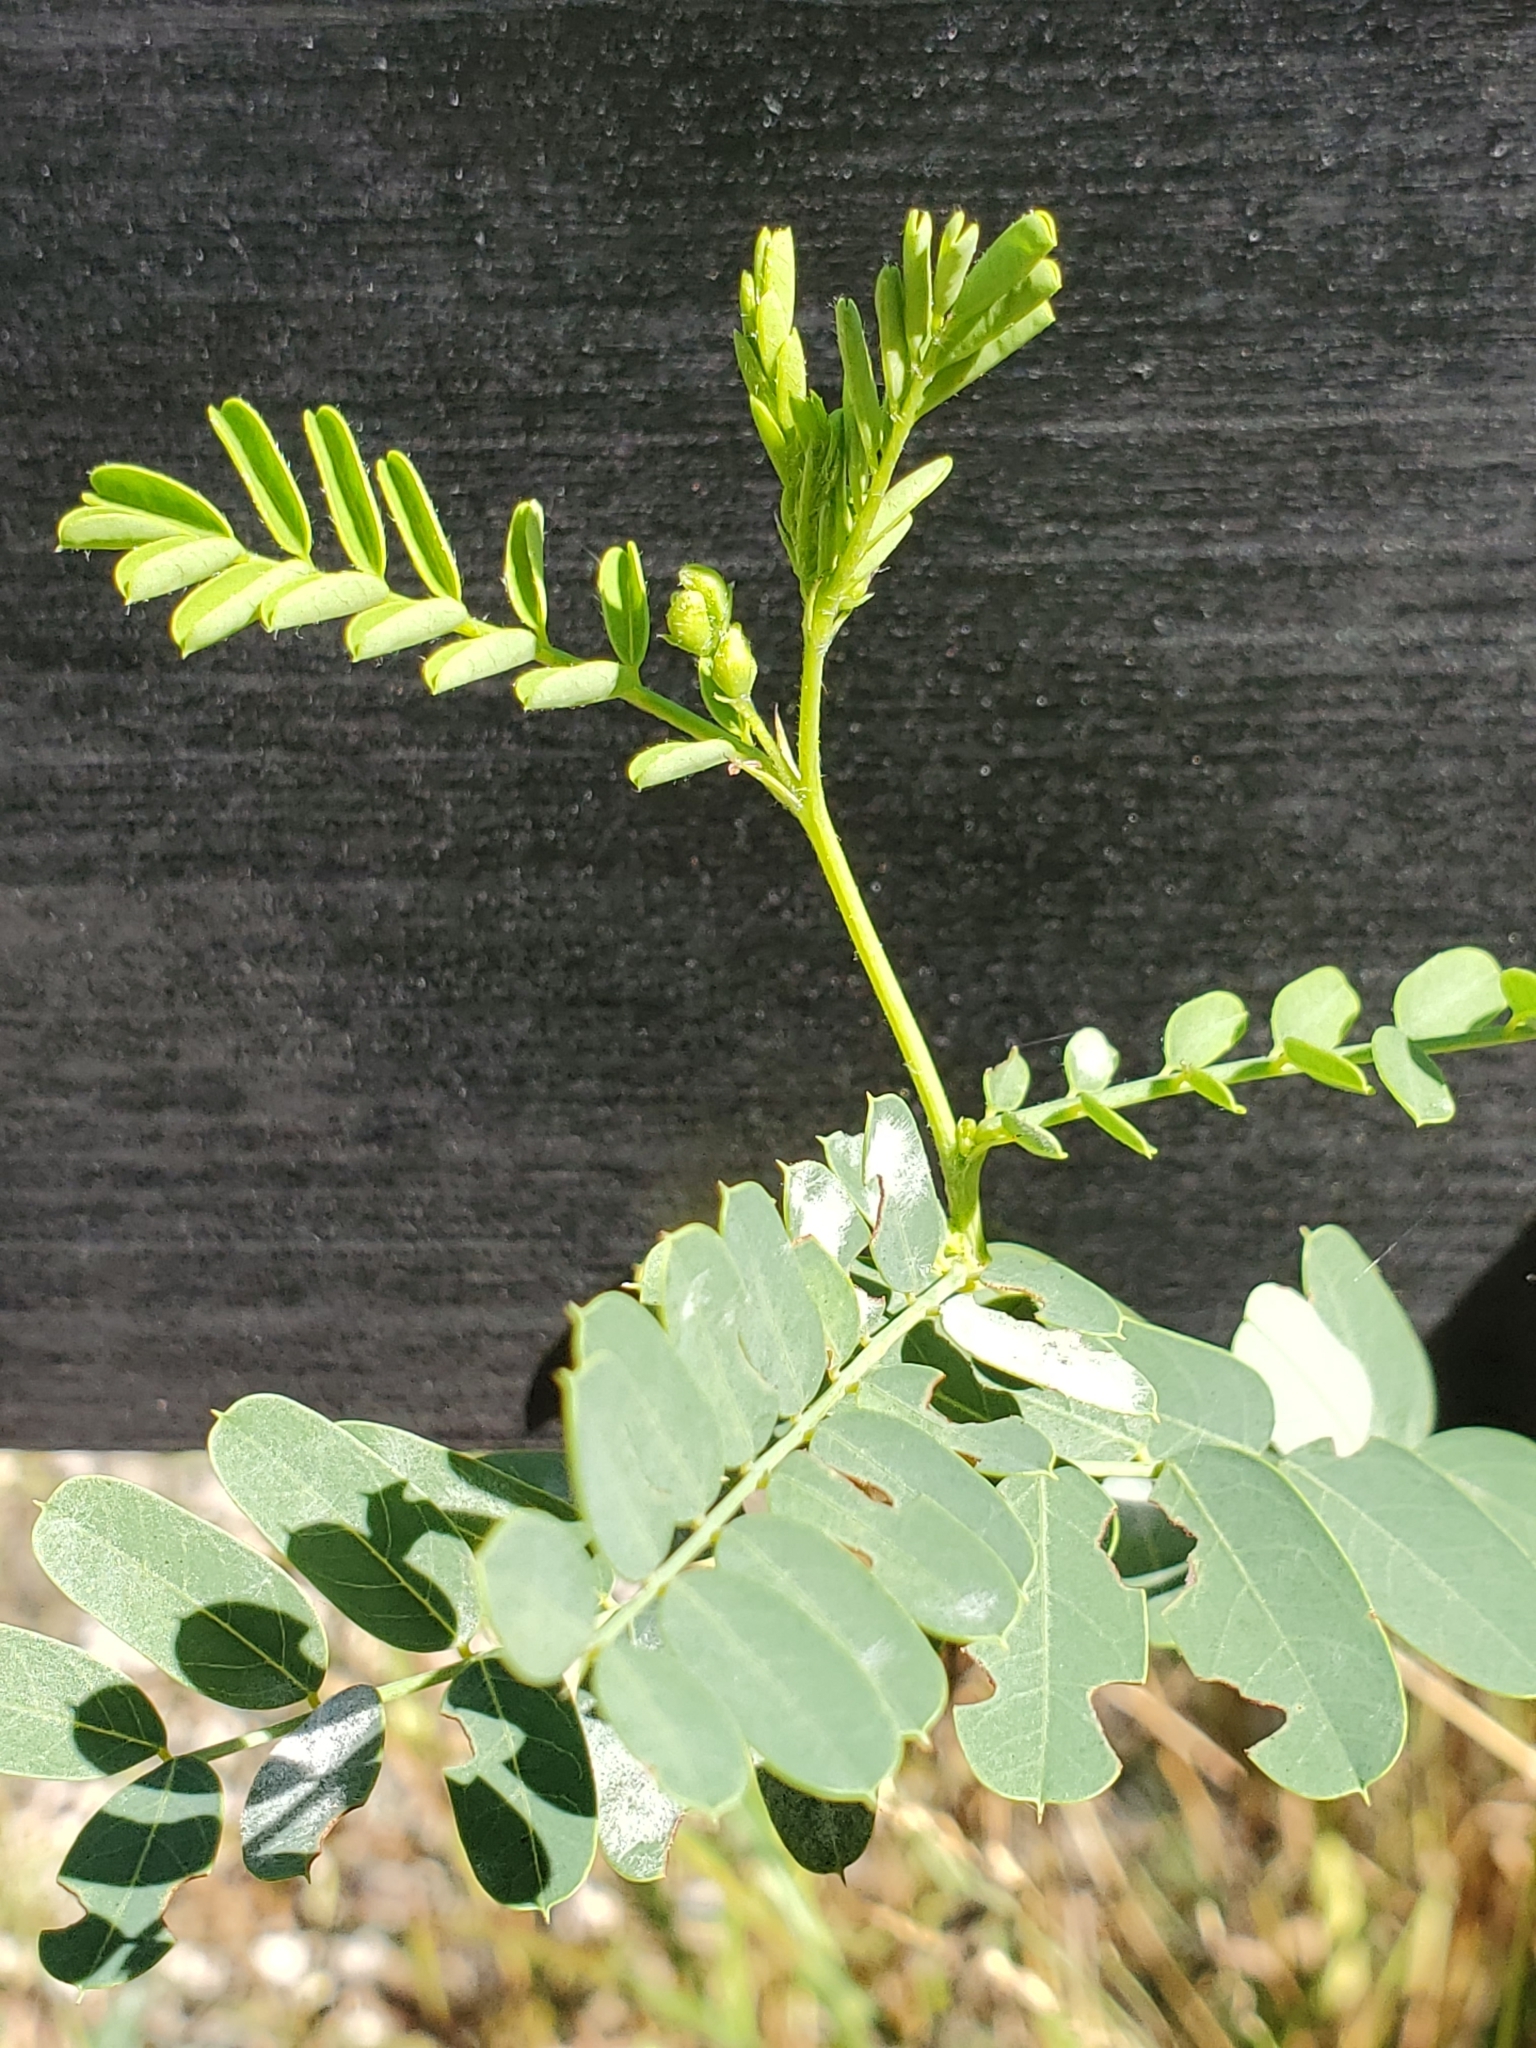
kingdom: Plantae
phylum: Tracheophyta
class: Magnoliopsida
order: Fabales
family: Fabaceae
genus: Sesbania
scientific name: Sesbania vesicaria
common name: Bagpod
